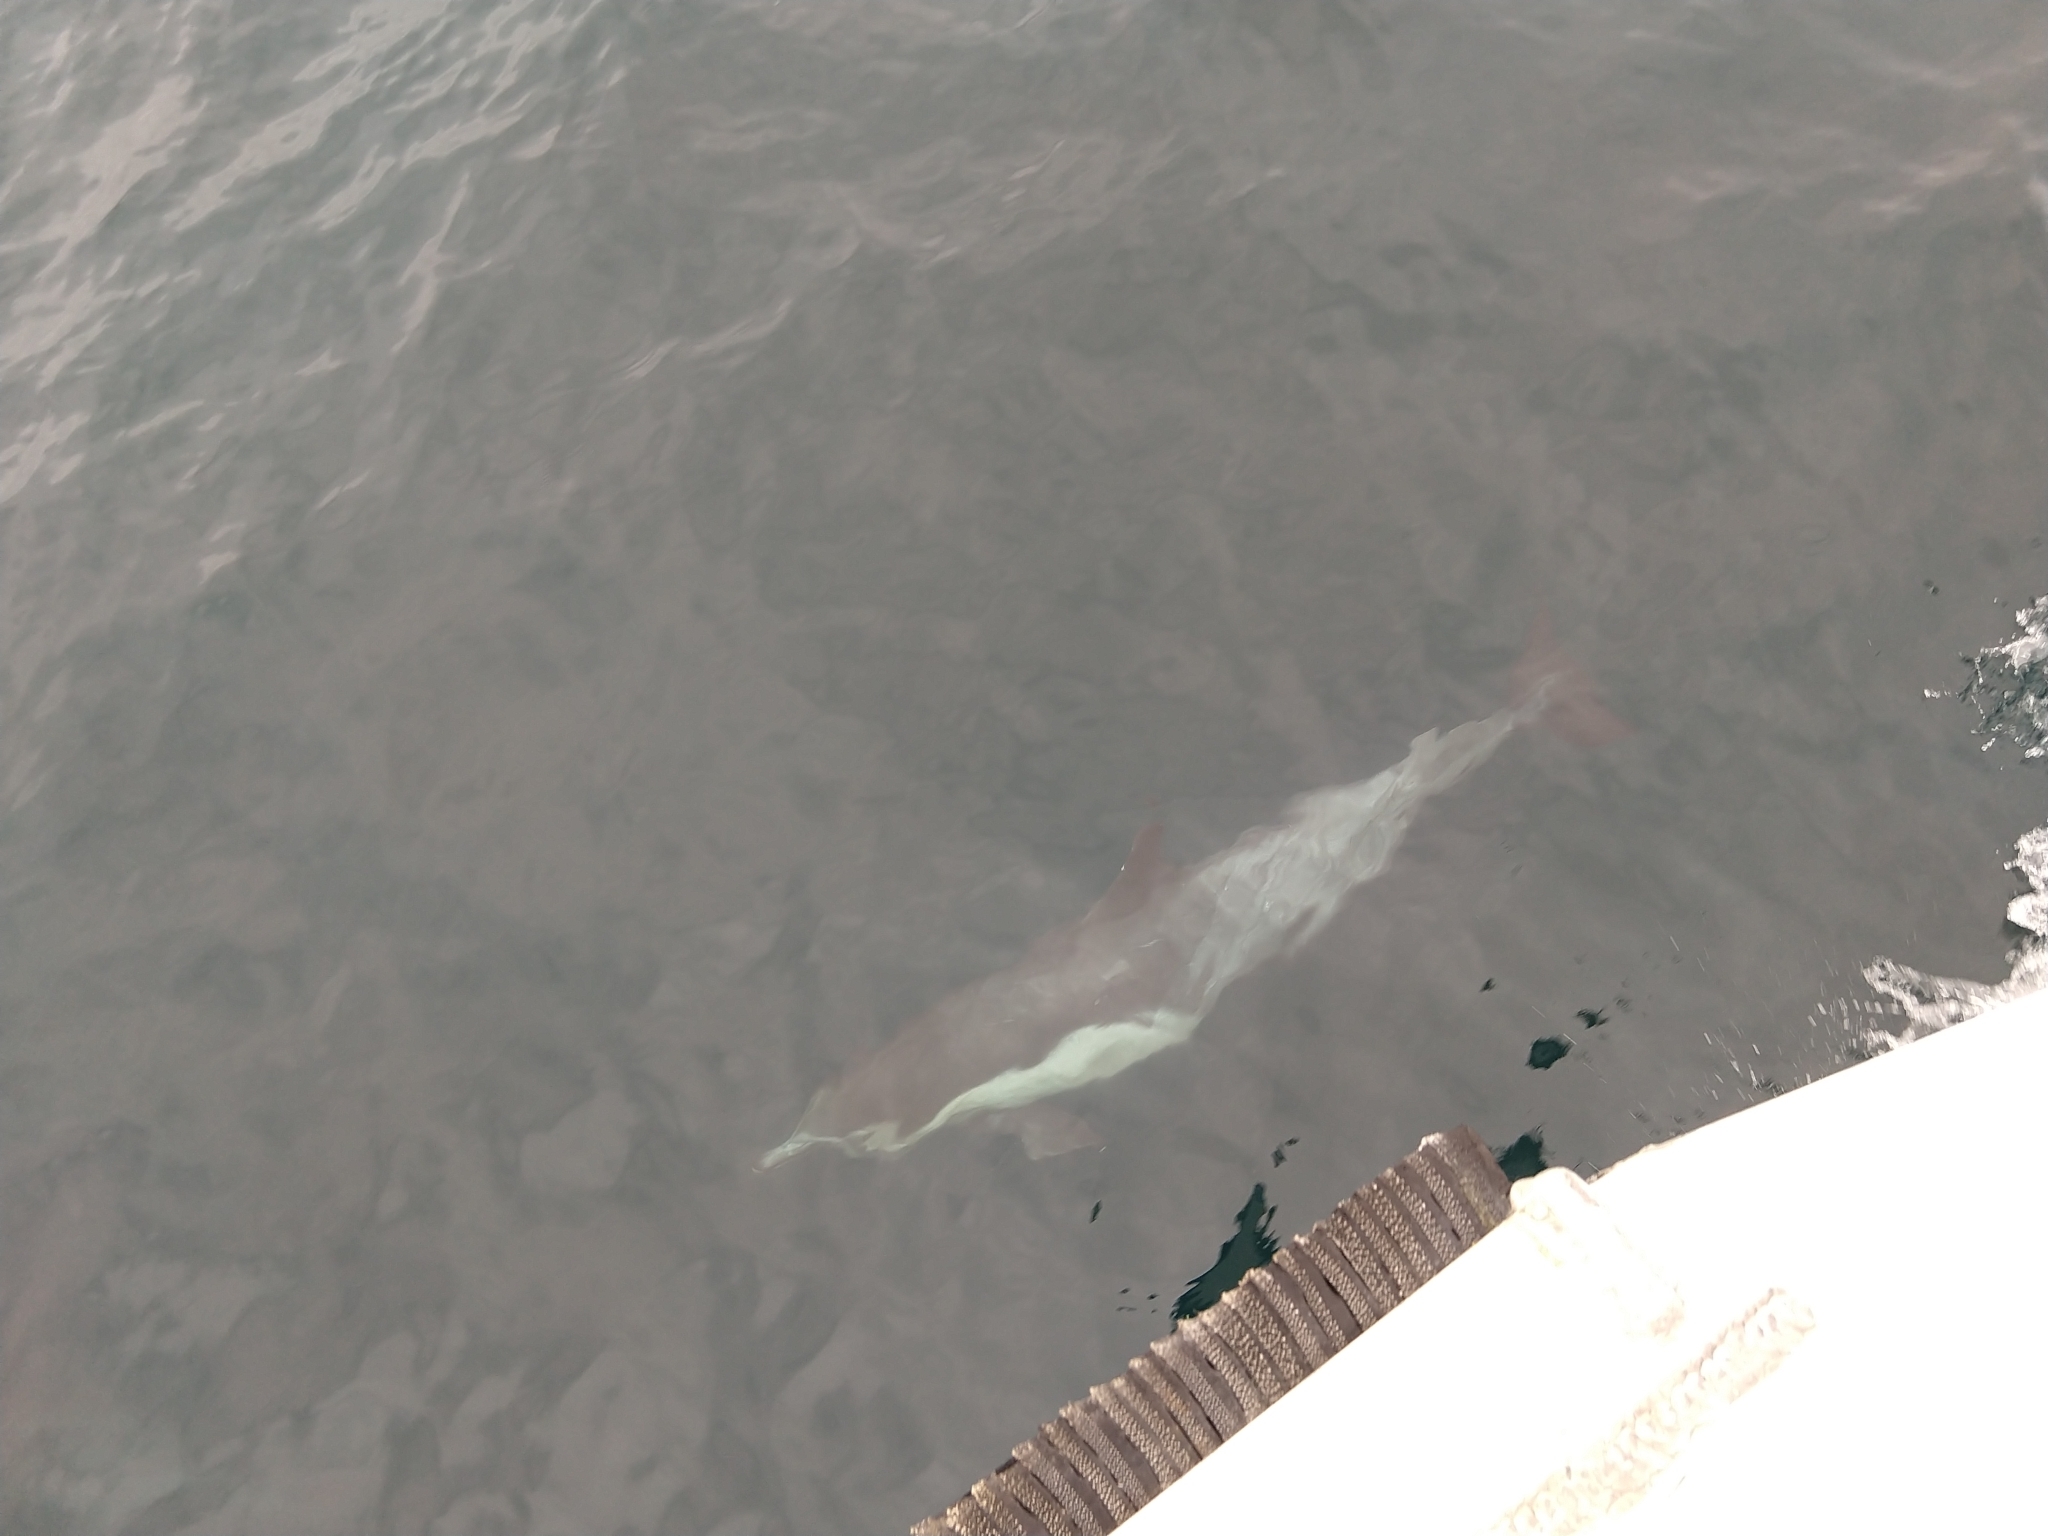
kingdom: Animalia
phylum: Chordata
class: Mammalia
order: Cetacea
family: Delphinidae
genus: Delphinus
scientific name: Delphinus delphis
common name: Common dolphin
